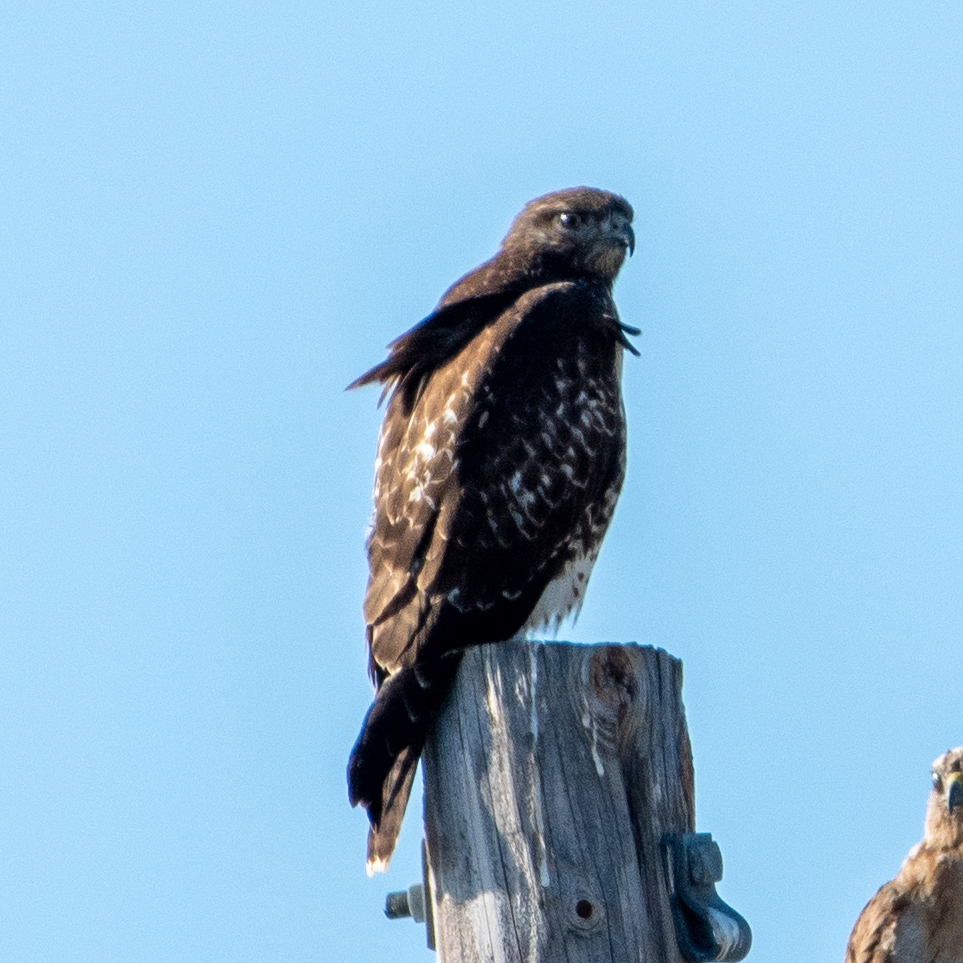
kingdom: Animalia
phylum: Chordata
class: Aves
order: Accipitriformes
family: Accipitridae
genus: Buteo
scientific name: Buteo jamaicensis
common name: Red-tailed hawk
